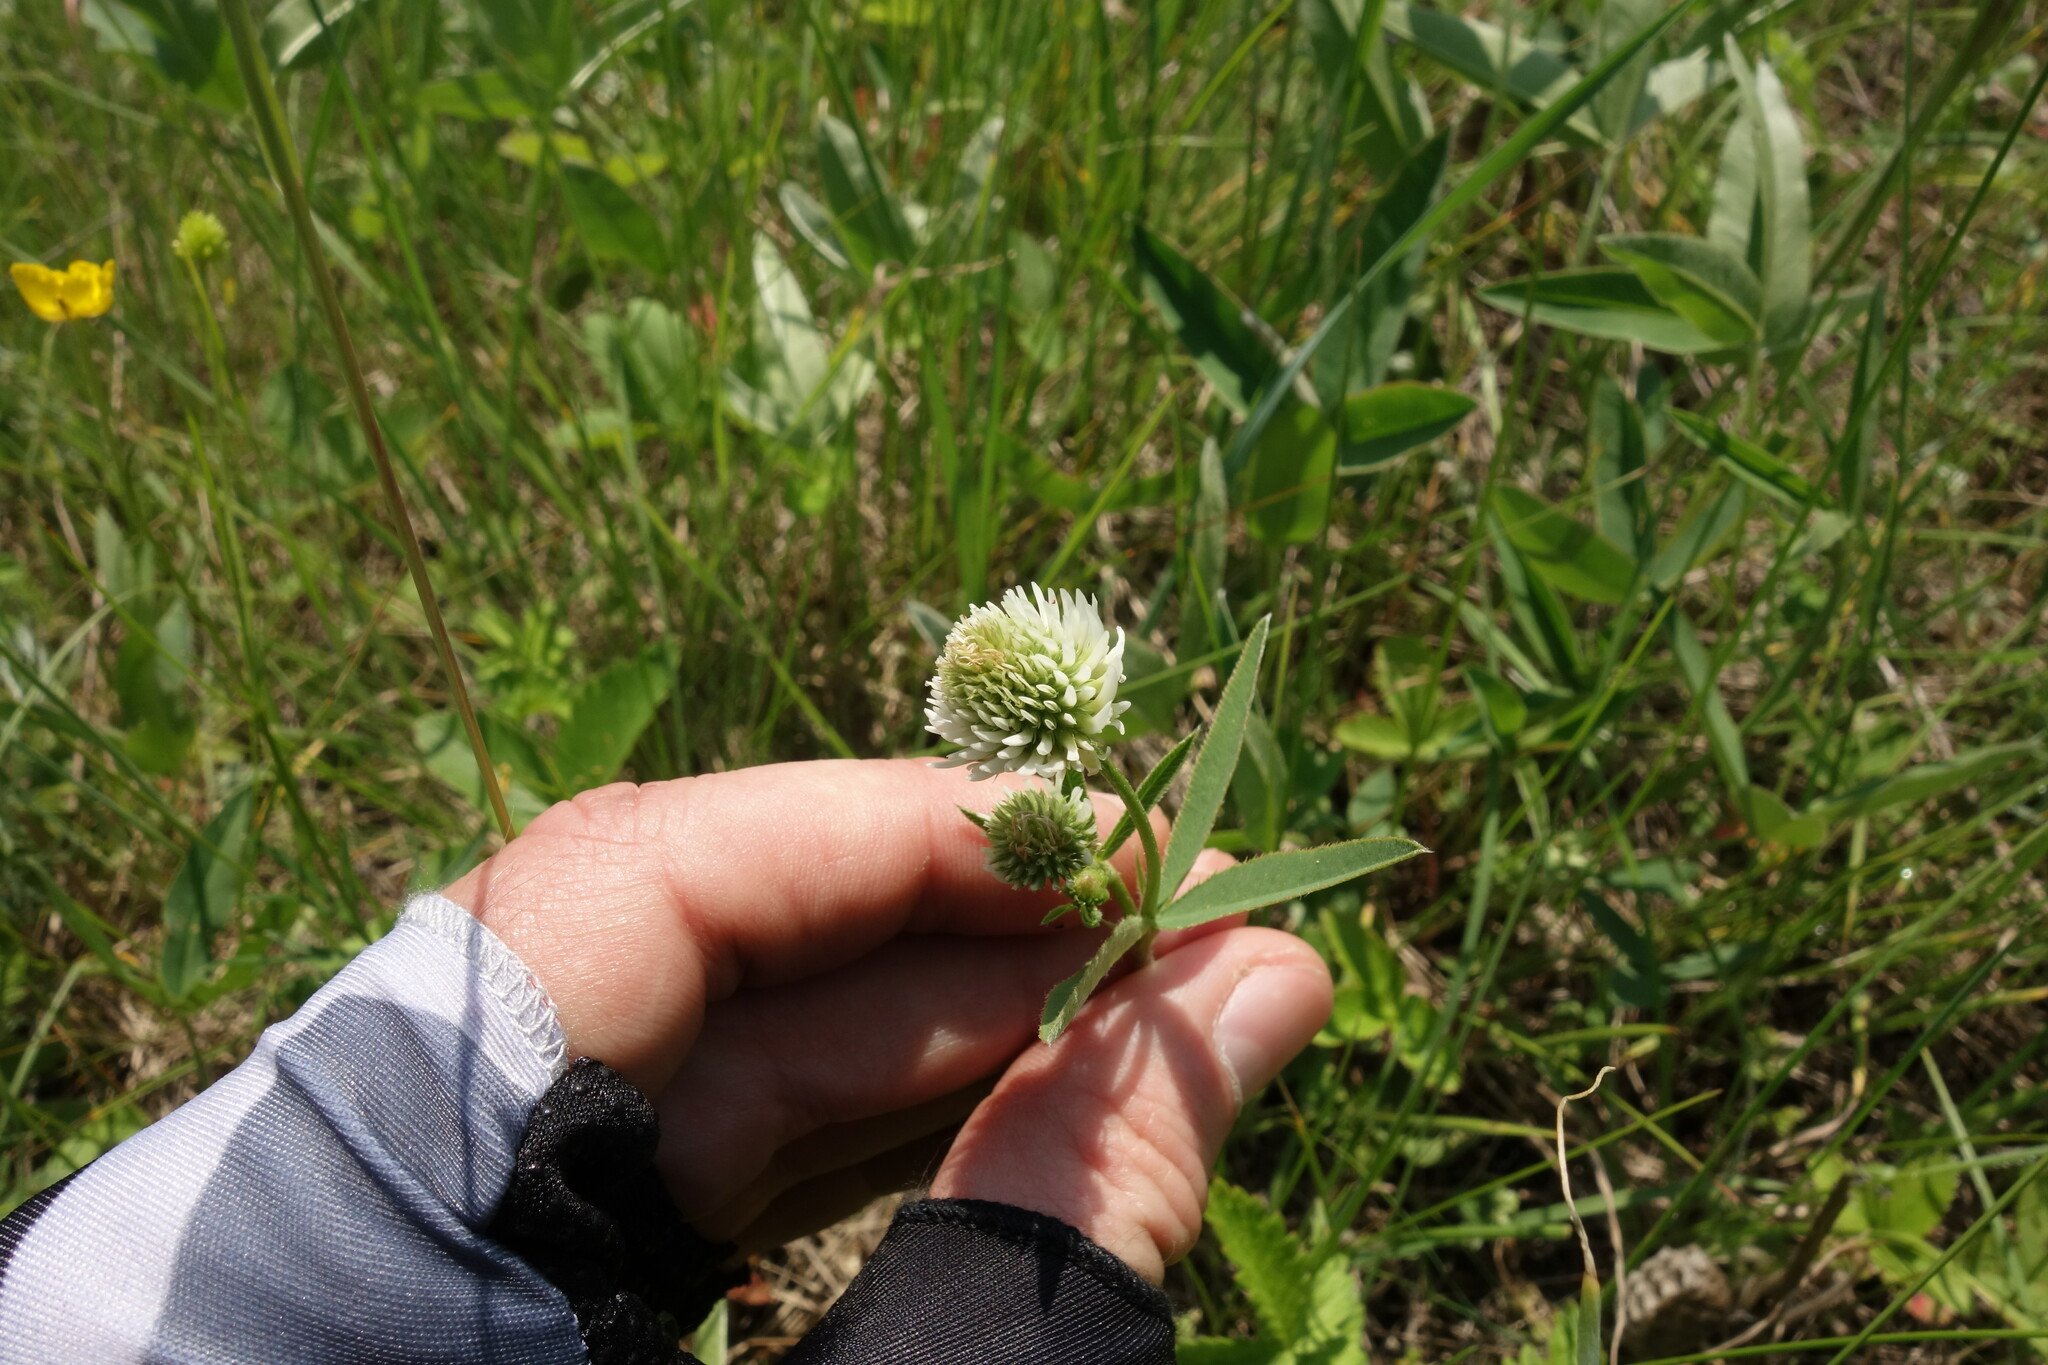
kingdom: Plantae
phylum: Tracheophyta
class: Magnoliopsida
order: Fabales
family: Fabaceae
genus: Trifolium
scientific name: Trifolium montanum
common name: Mountain clover
